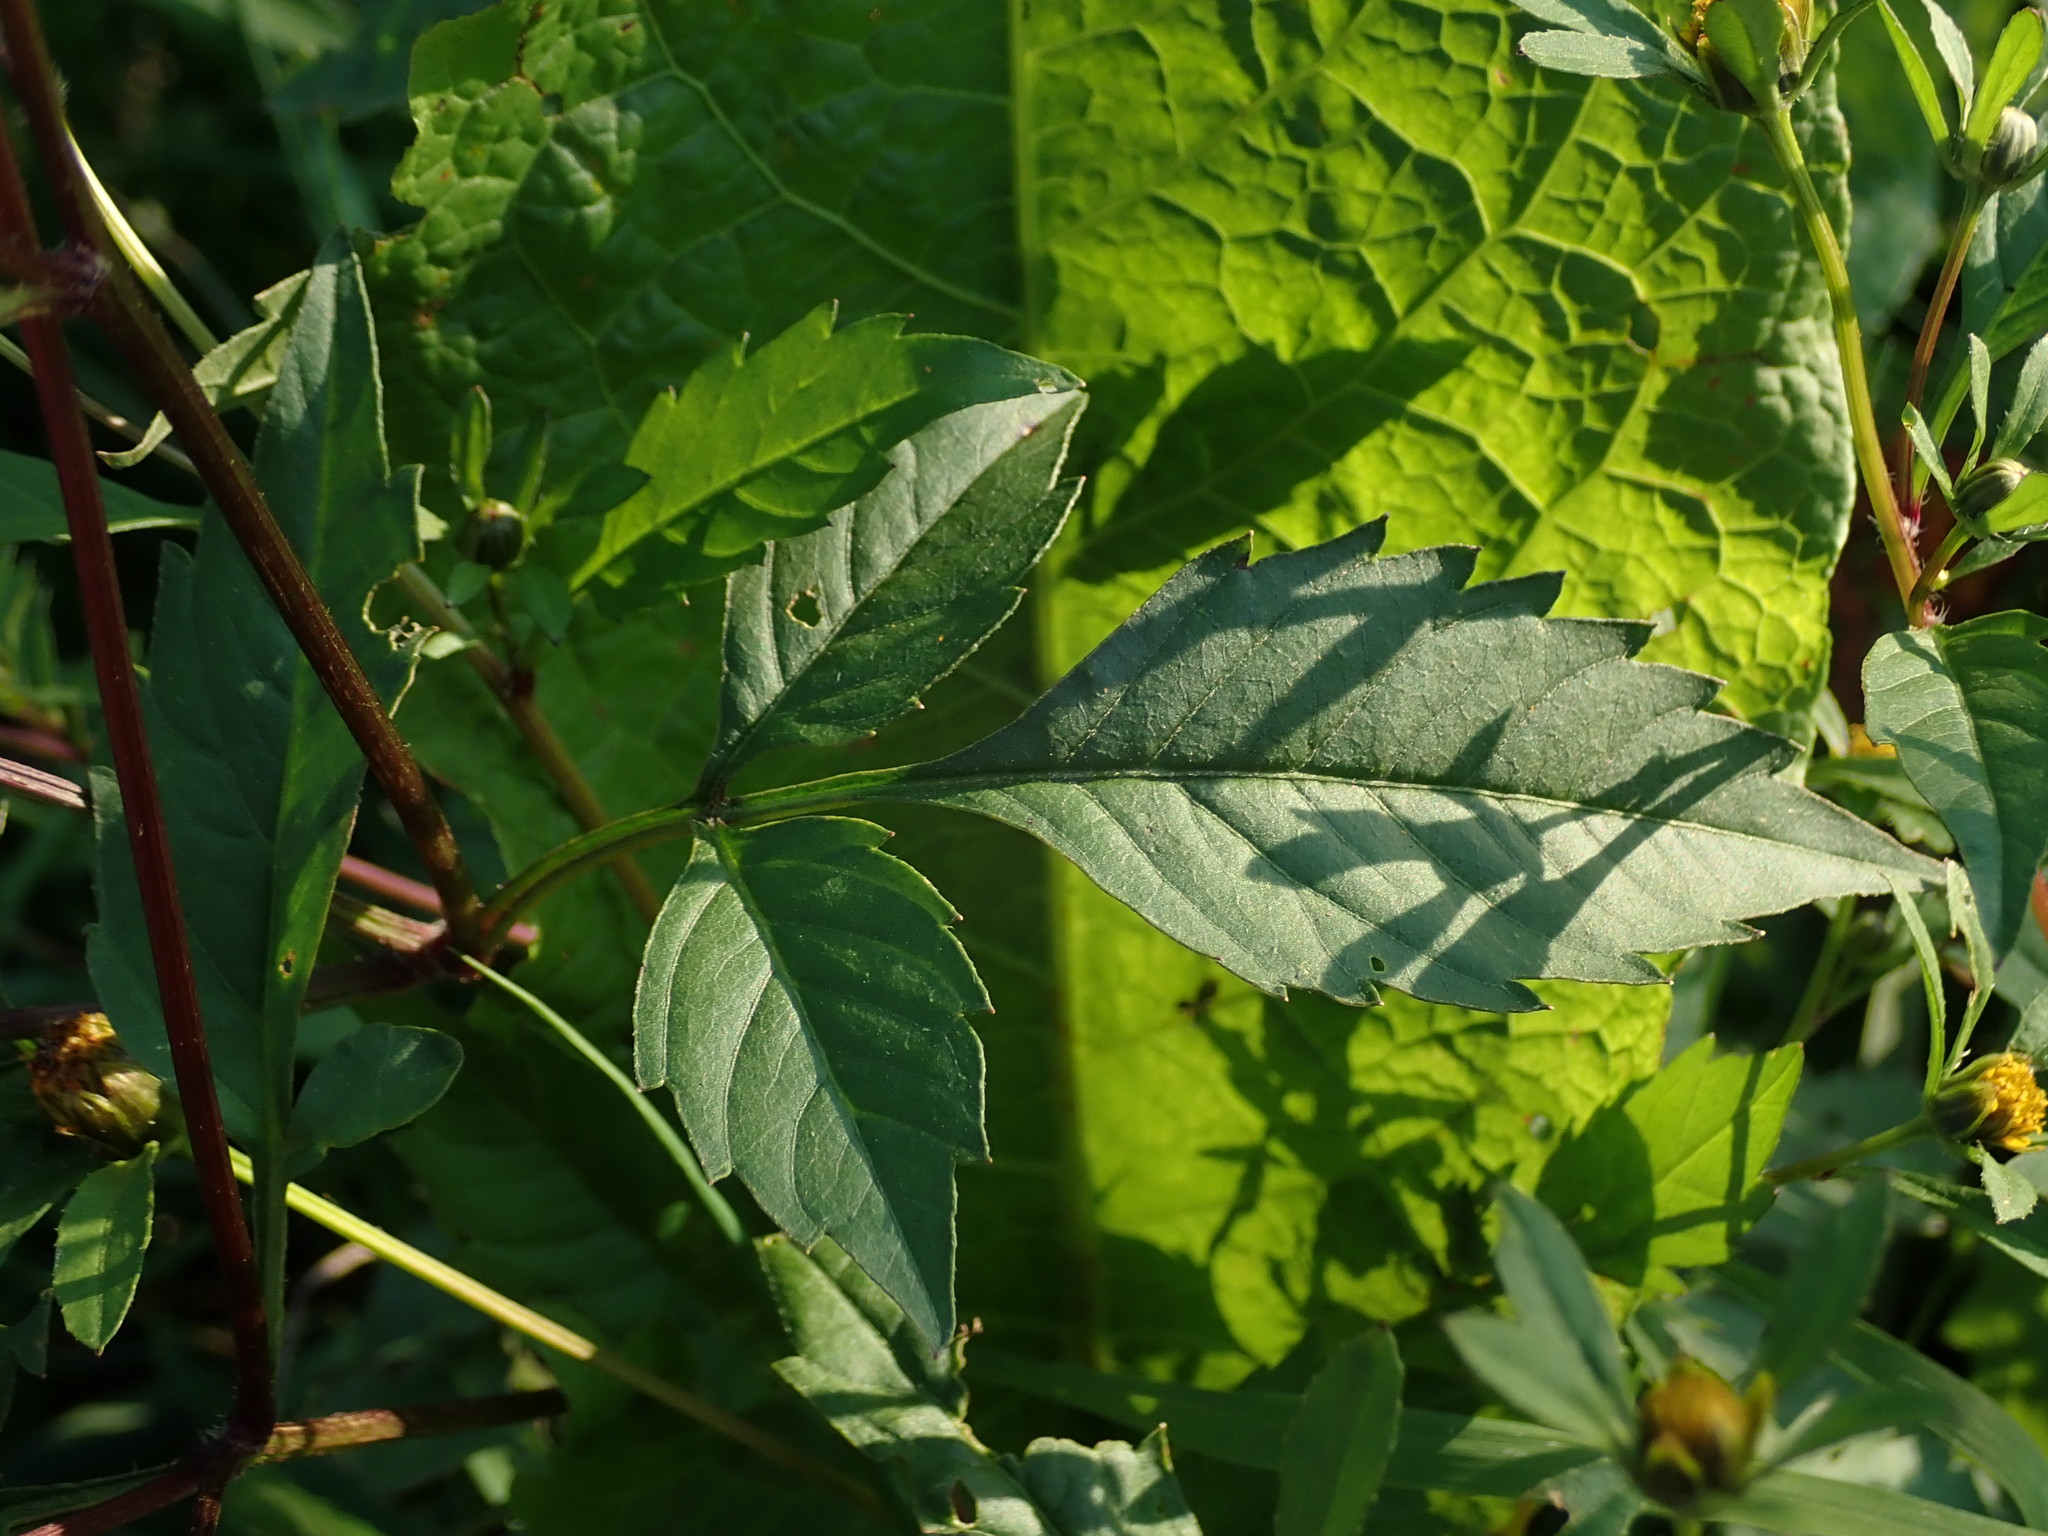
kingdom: Plantae
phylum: Tracheophyta
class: Magnoliopsida
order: Asterales
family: Asteraceae
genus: Bidens
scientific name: Bidens frondosa
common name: Beggarticks
